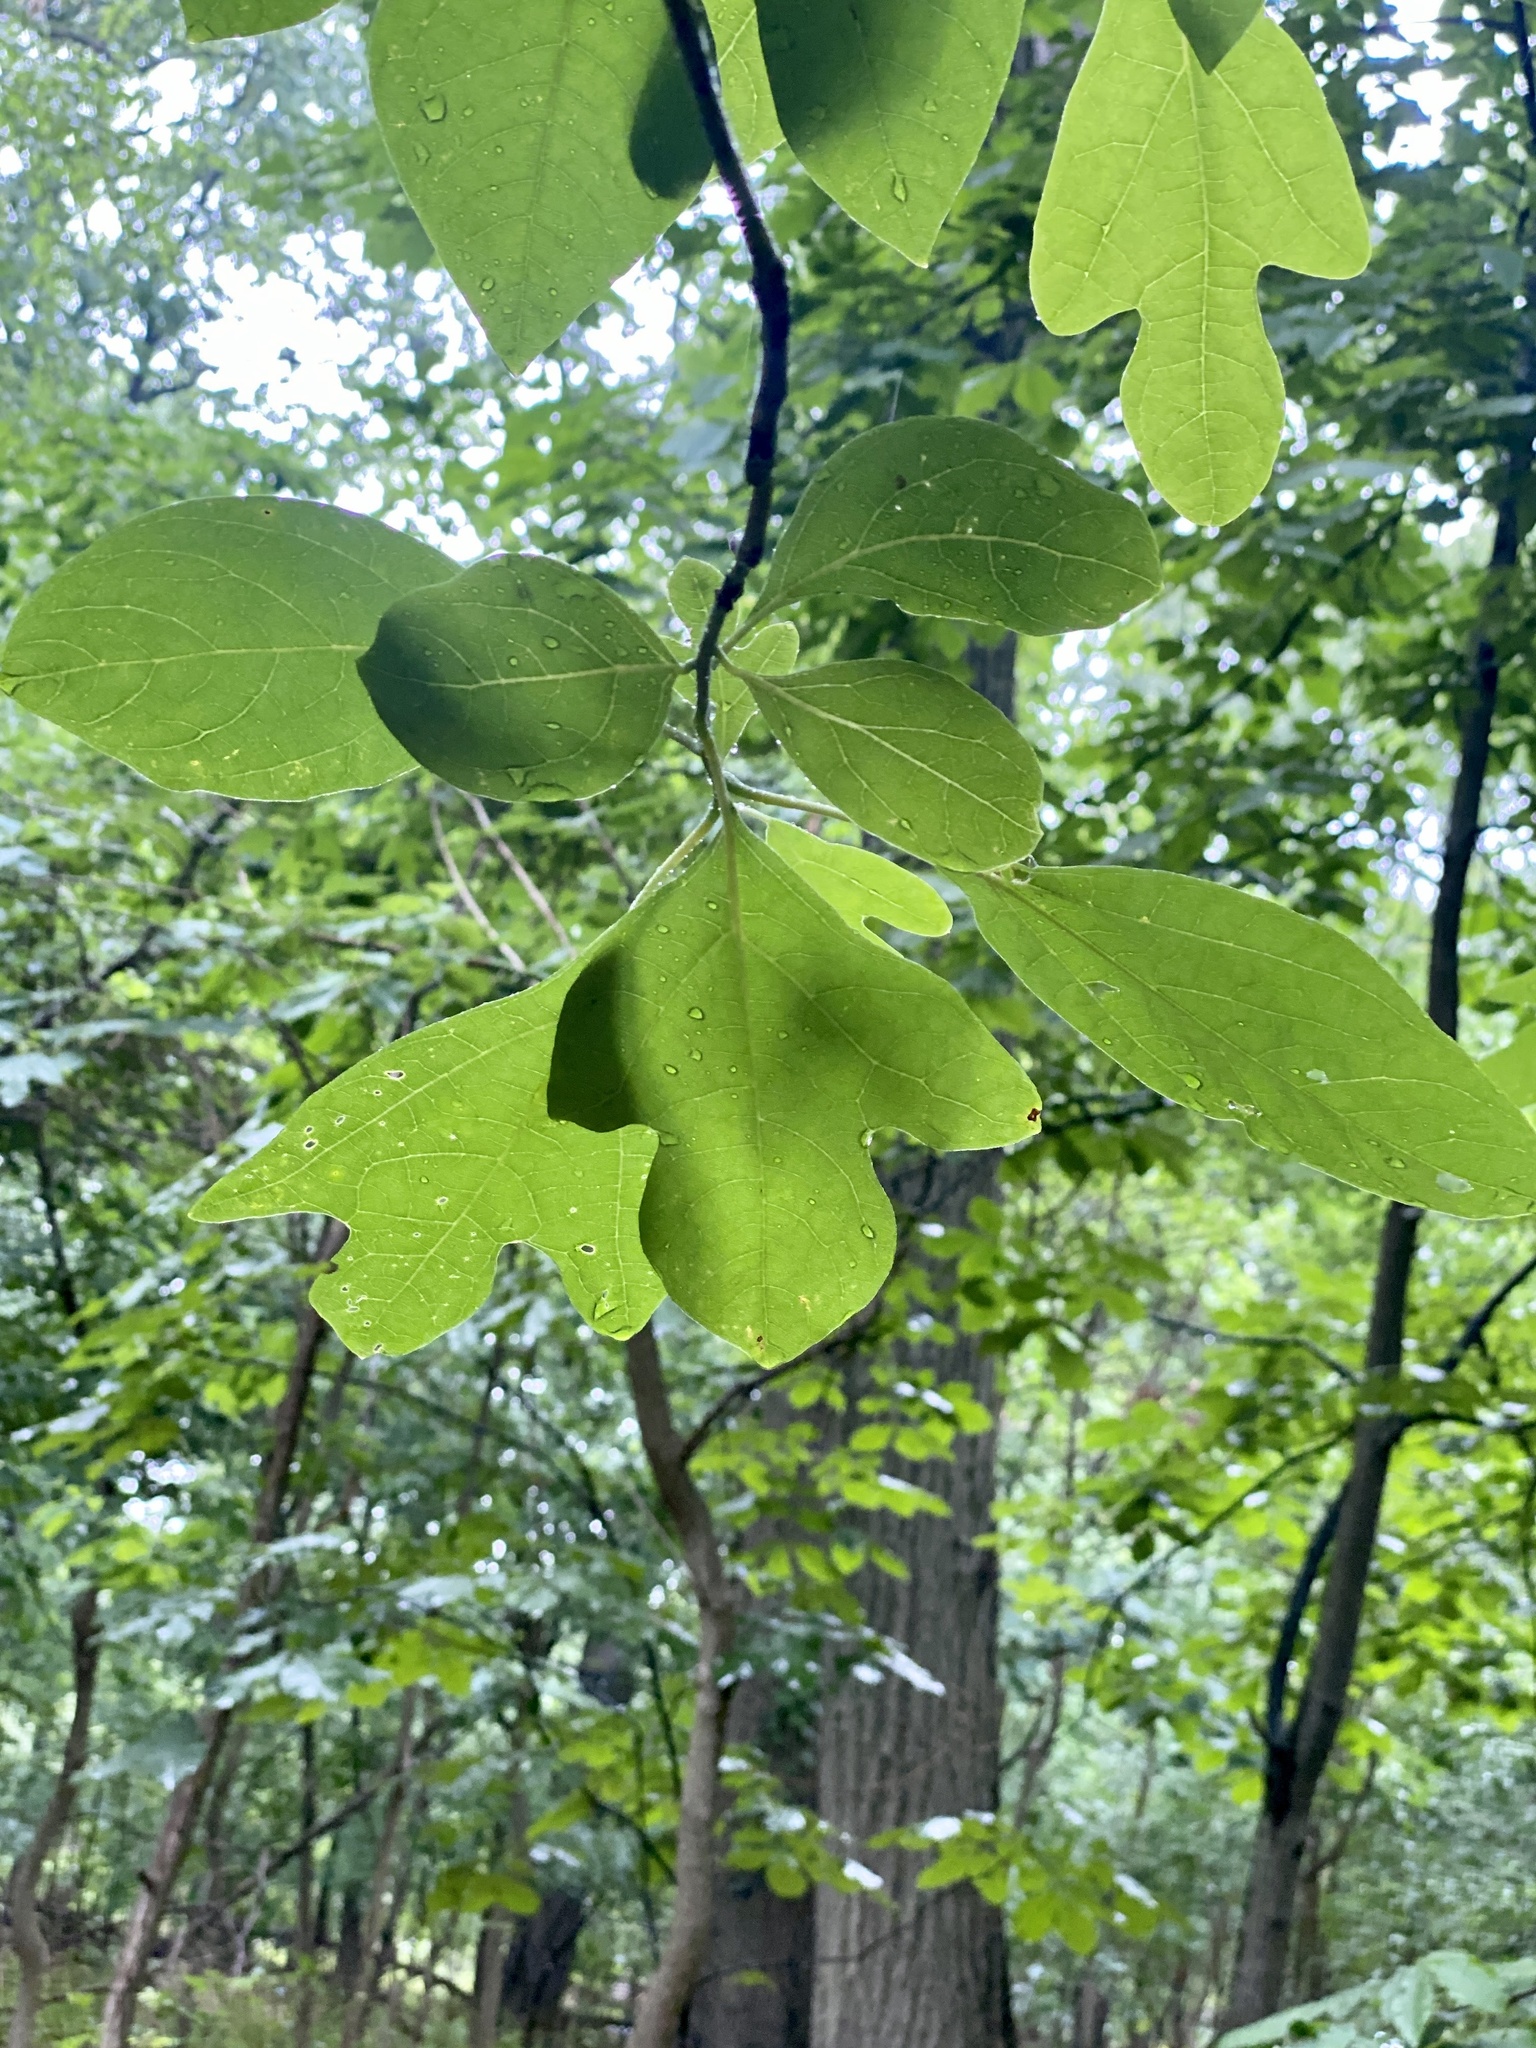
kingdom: Plantae
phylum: Tracheophyta
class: Magnoliopsida
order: Laurales
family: Lauraceae
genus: Sassafras
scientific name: Sassafras albidum
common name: Sassafras
